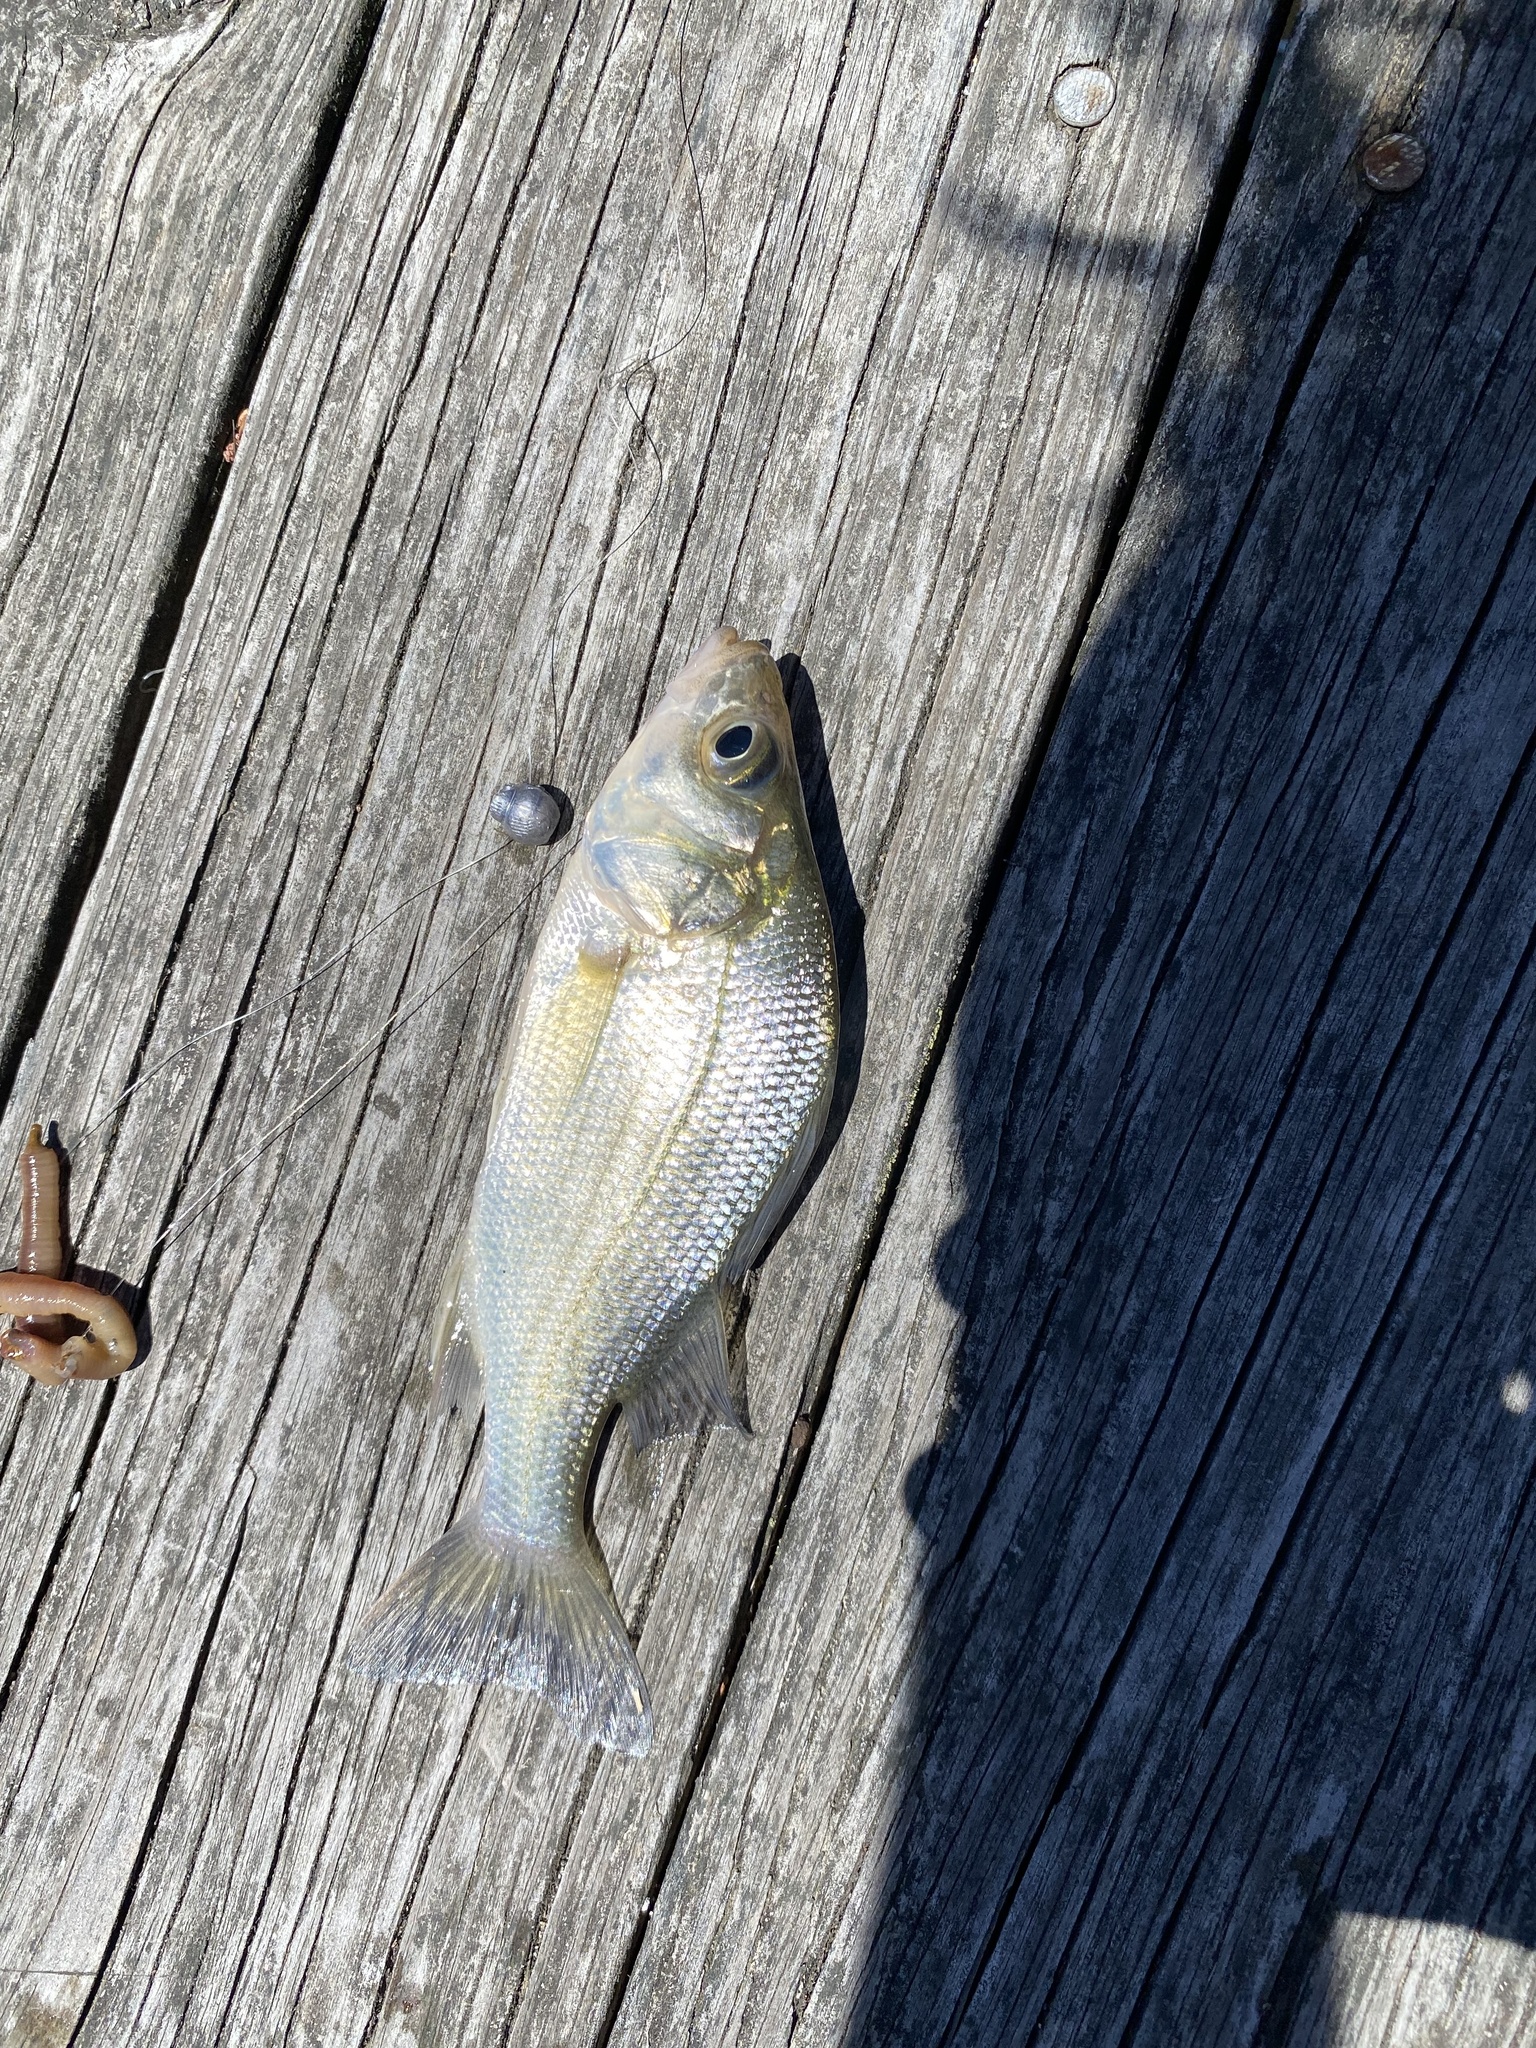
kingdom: Animalia
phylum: Chordata
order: Perciformes
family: Moronidae
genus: Morone
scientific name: Morone americana
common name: White perch
